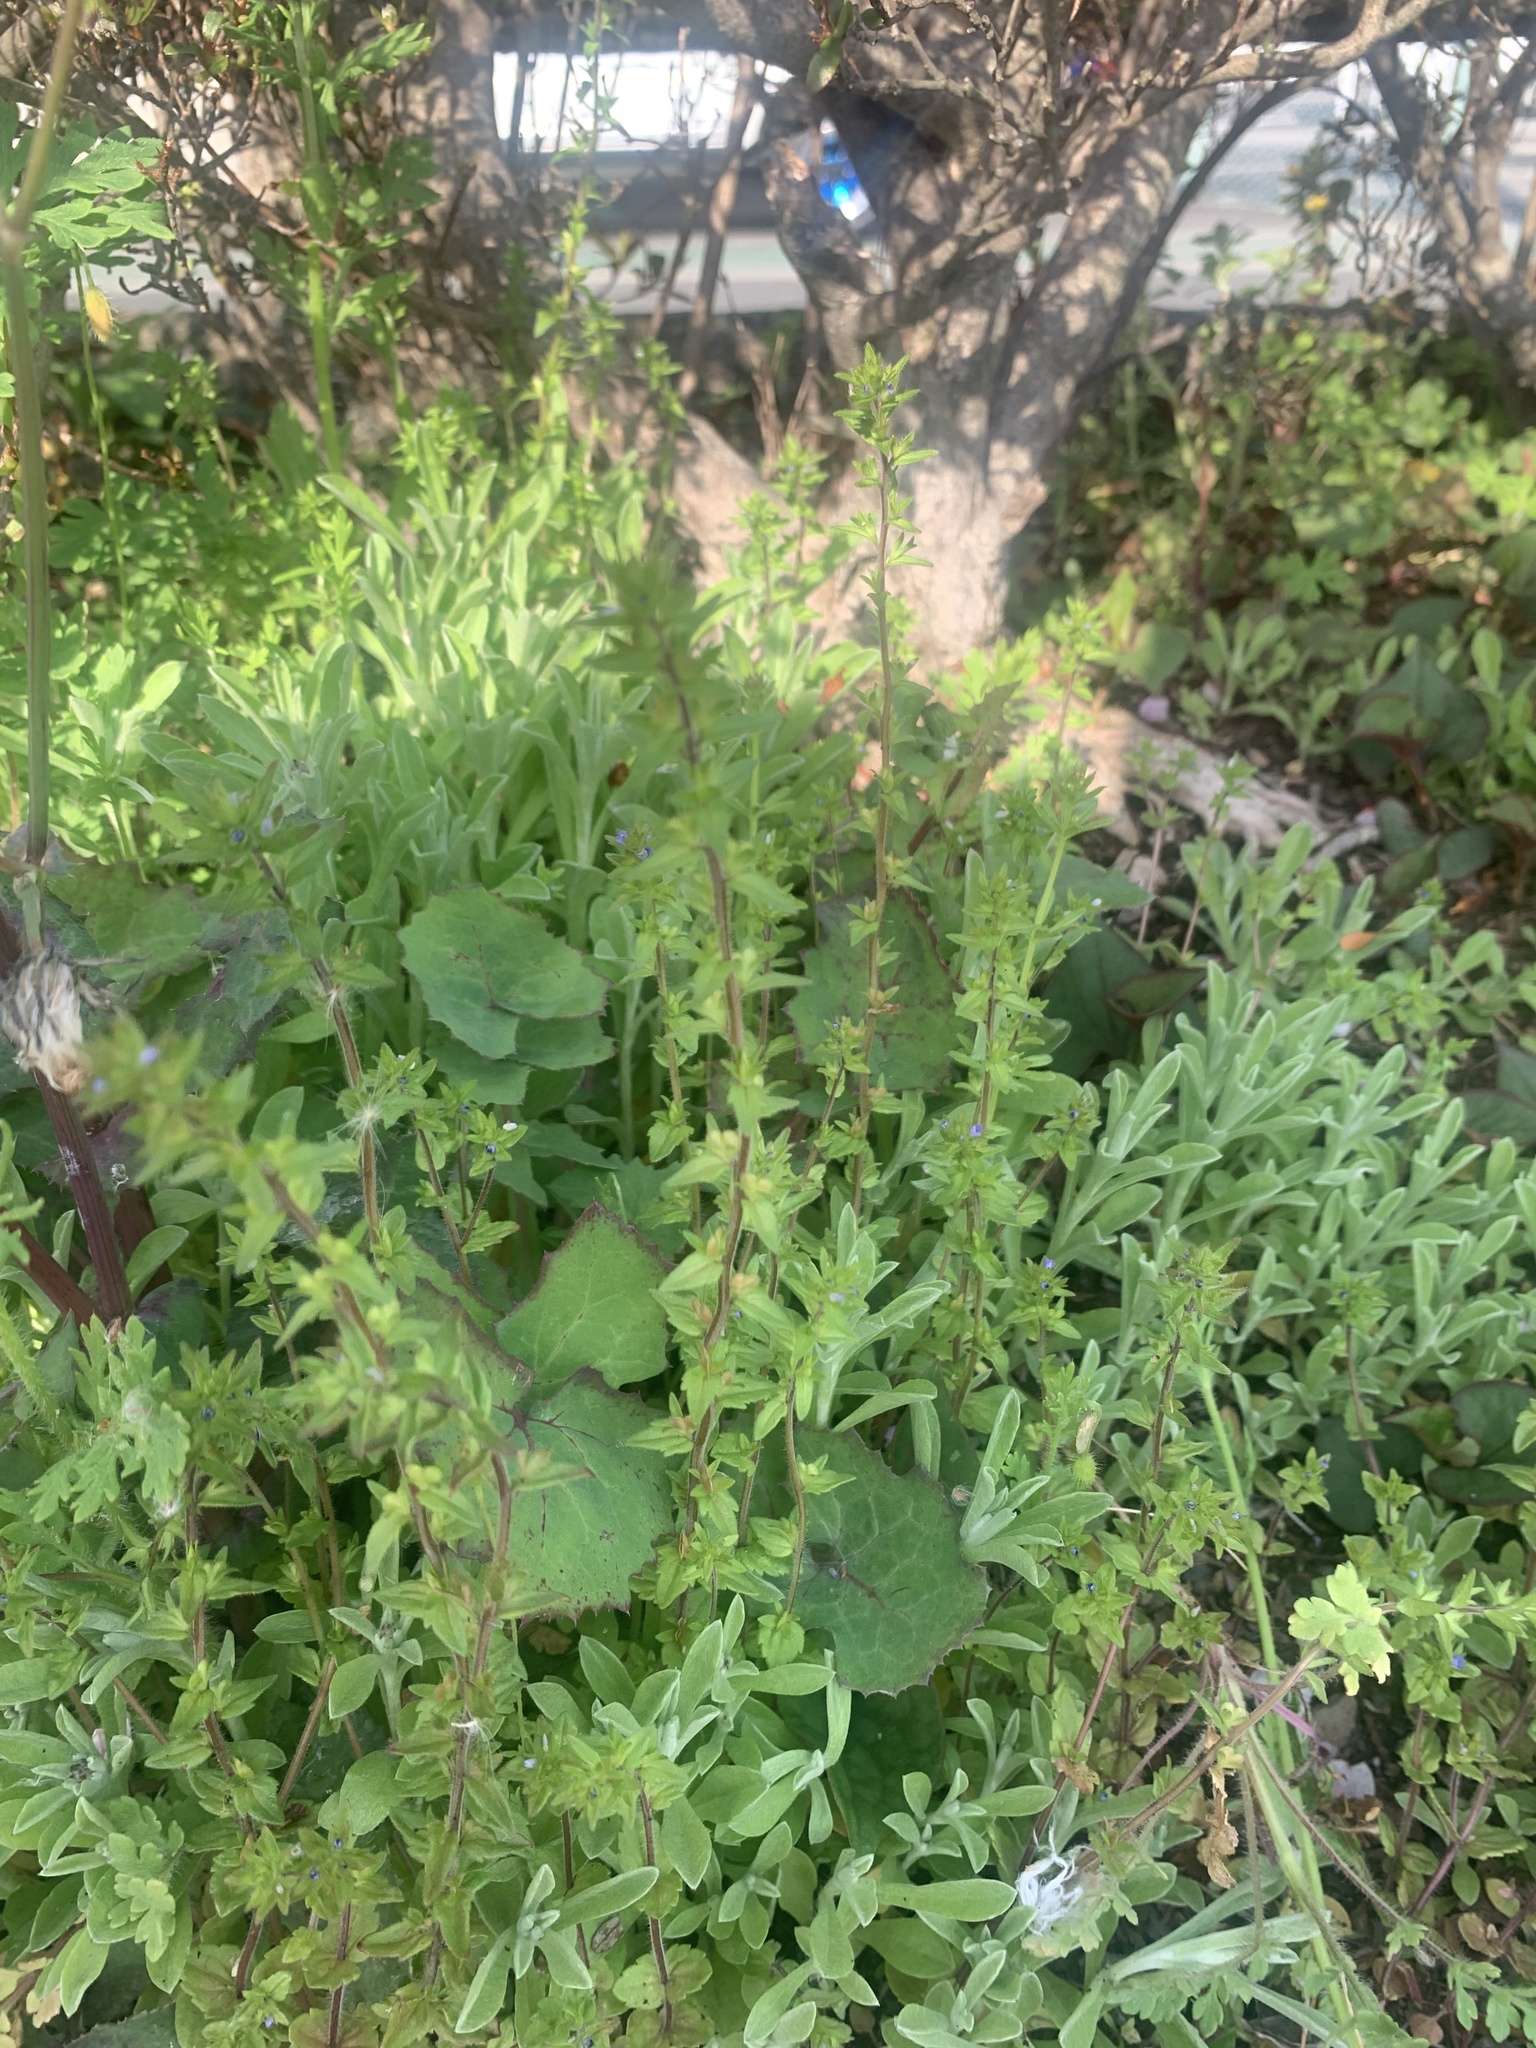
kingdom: Plantae
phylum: Tracheophyta
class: Magnoliopsida
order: Lamiales
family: Plantaginaceae
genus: Veronica
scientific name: Veronica arvensis
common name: Corn speedwell
